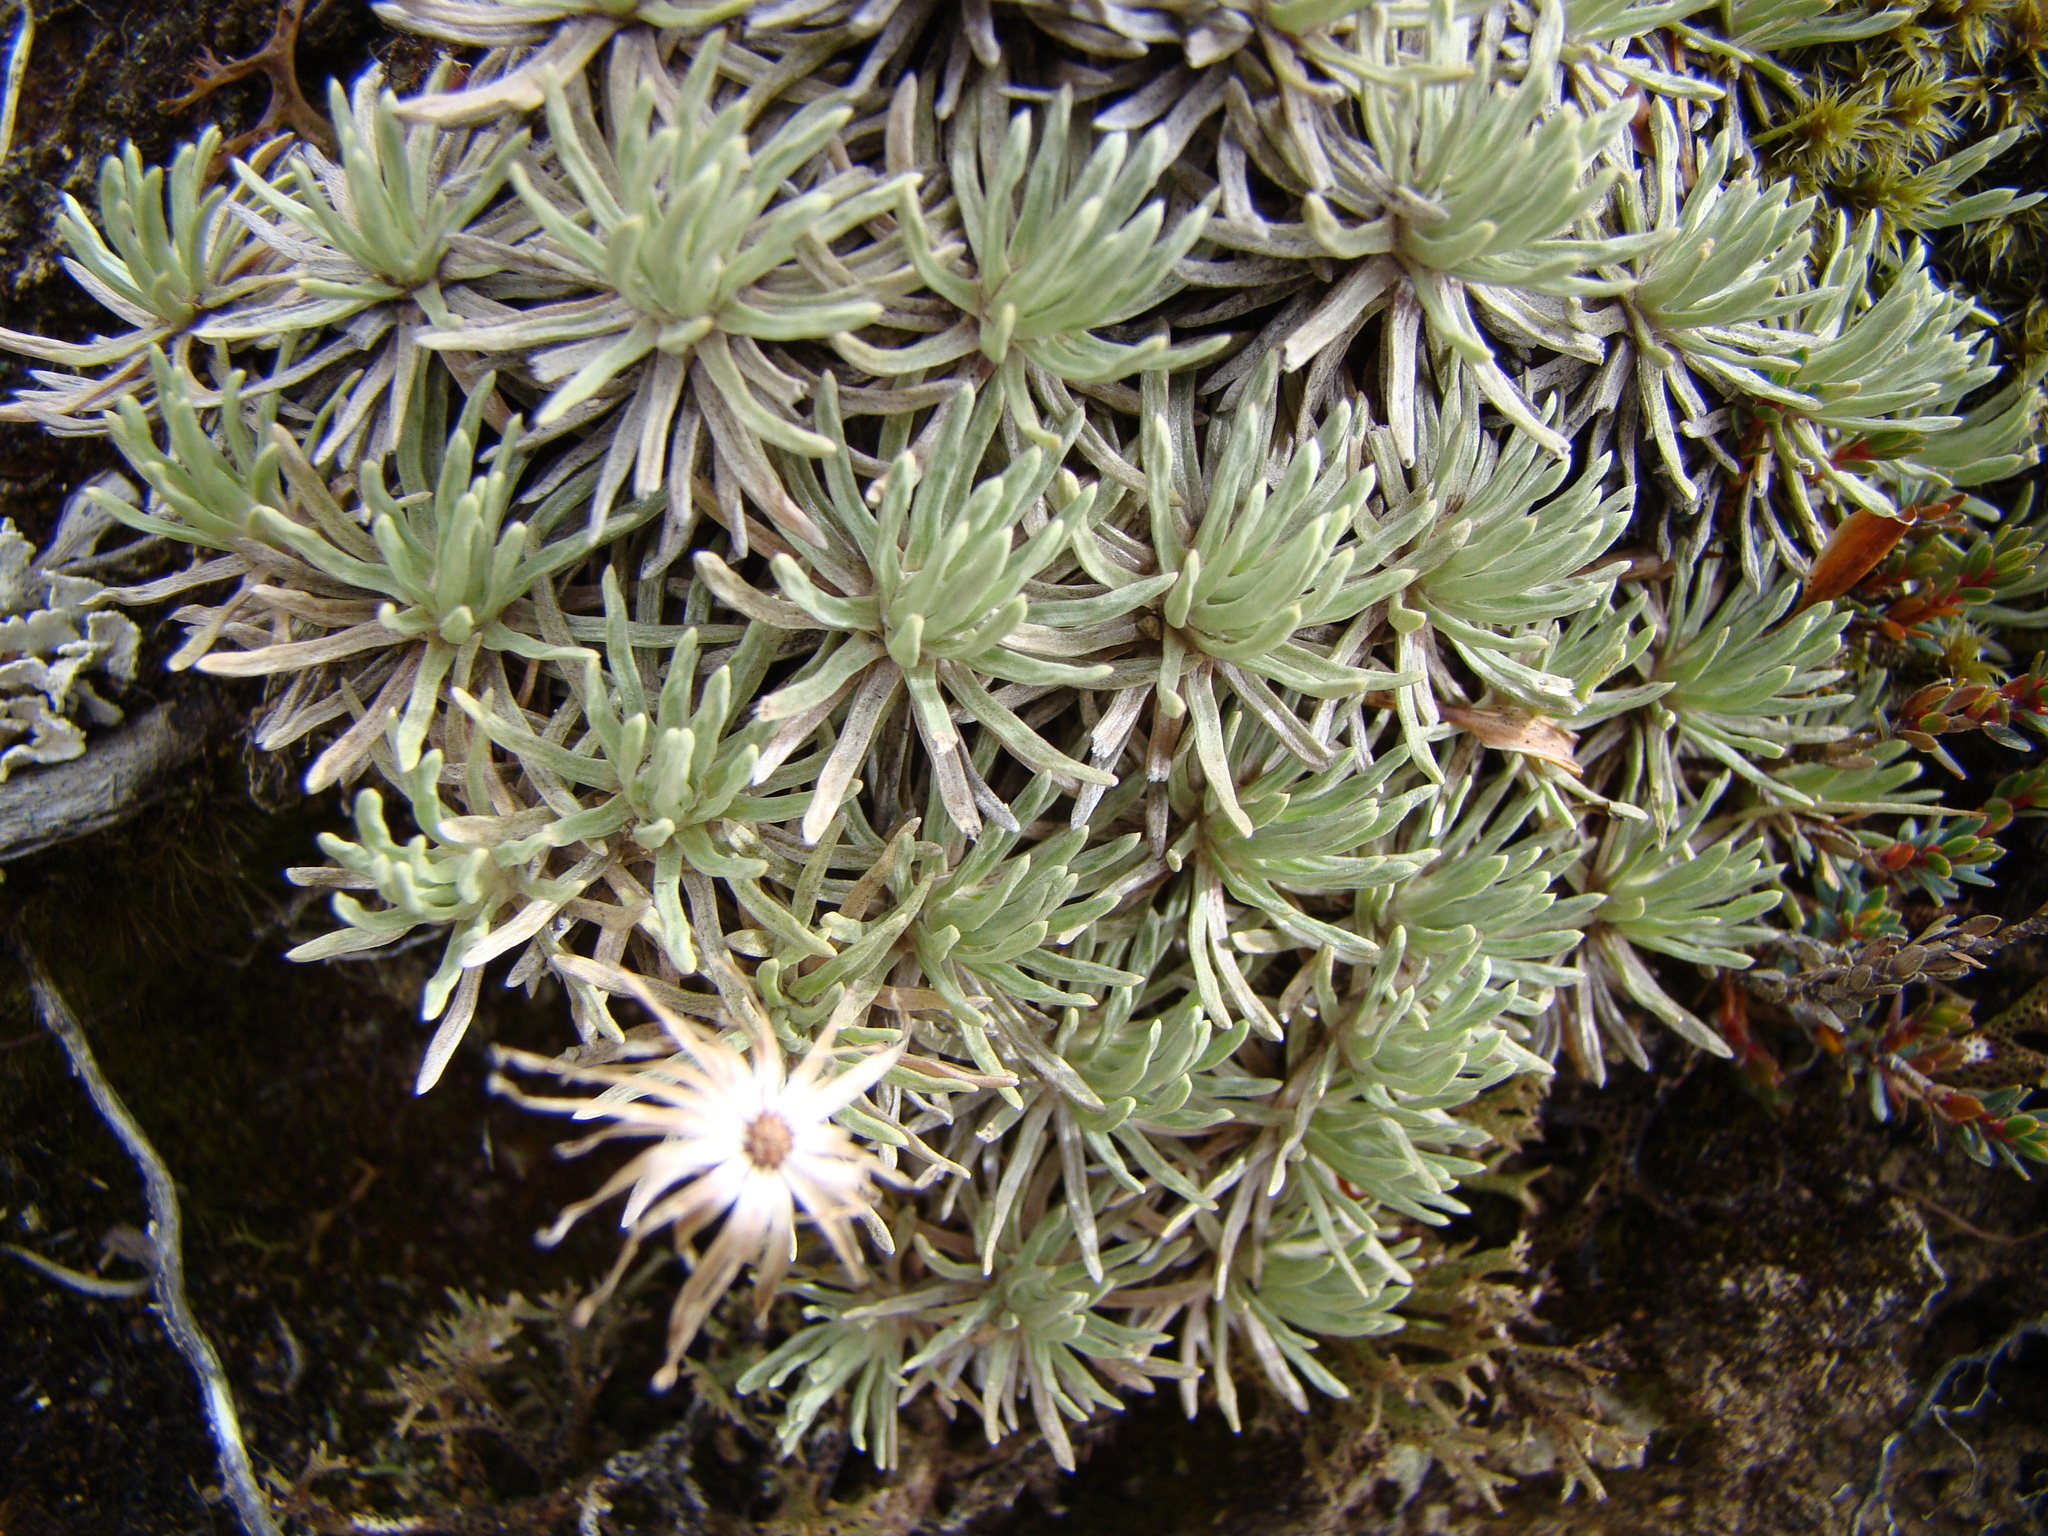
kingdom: Plantae
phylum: Tracheophyta
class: Magnoliopsida
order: Asterales
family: Asteraceae
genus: Celmisia
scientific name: Celmisia sessiliflora
